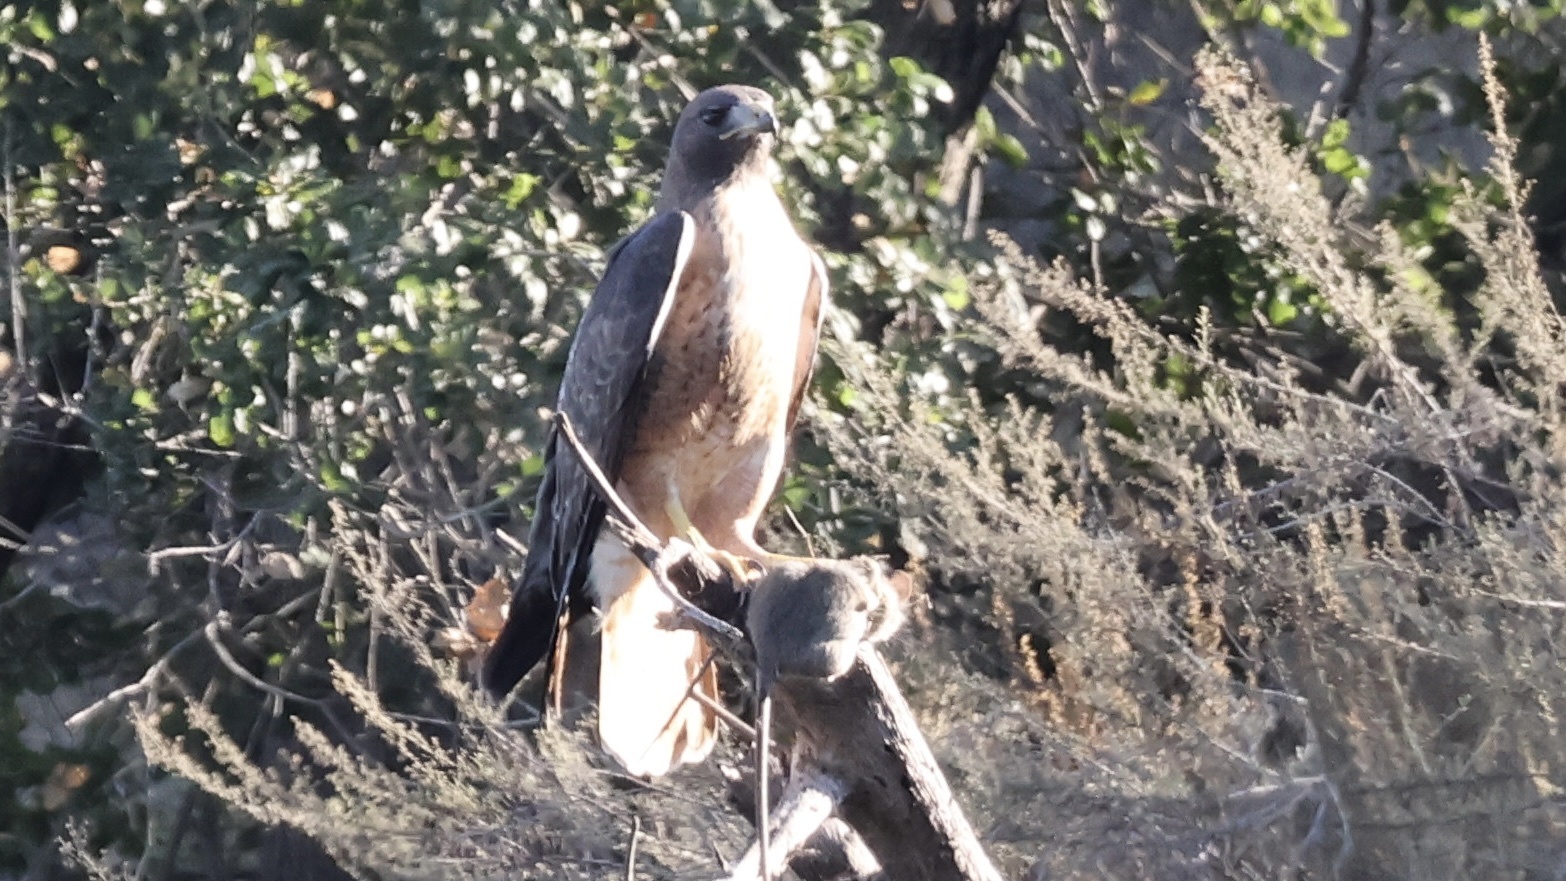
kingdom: Animalia
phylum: Chordata
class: Aves
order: Accipitriformes
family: Accipitridae
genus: Buteo
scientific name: Buteo jamaicensis
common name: Red-tailed hawk
